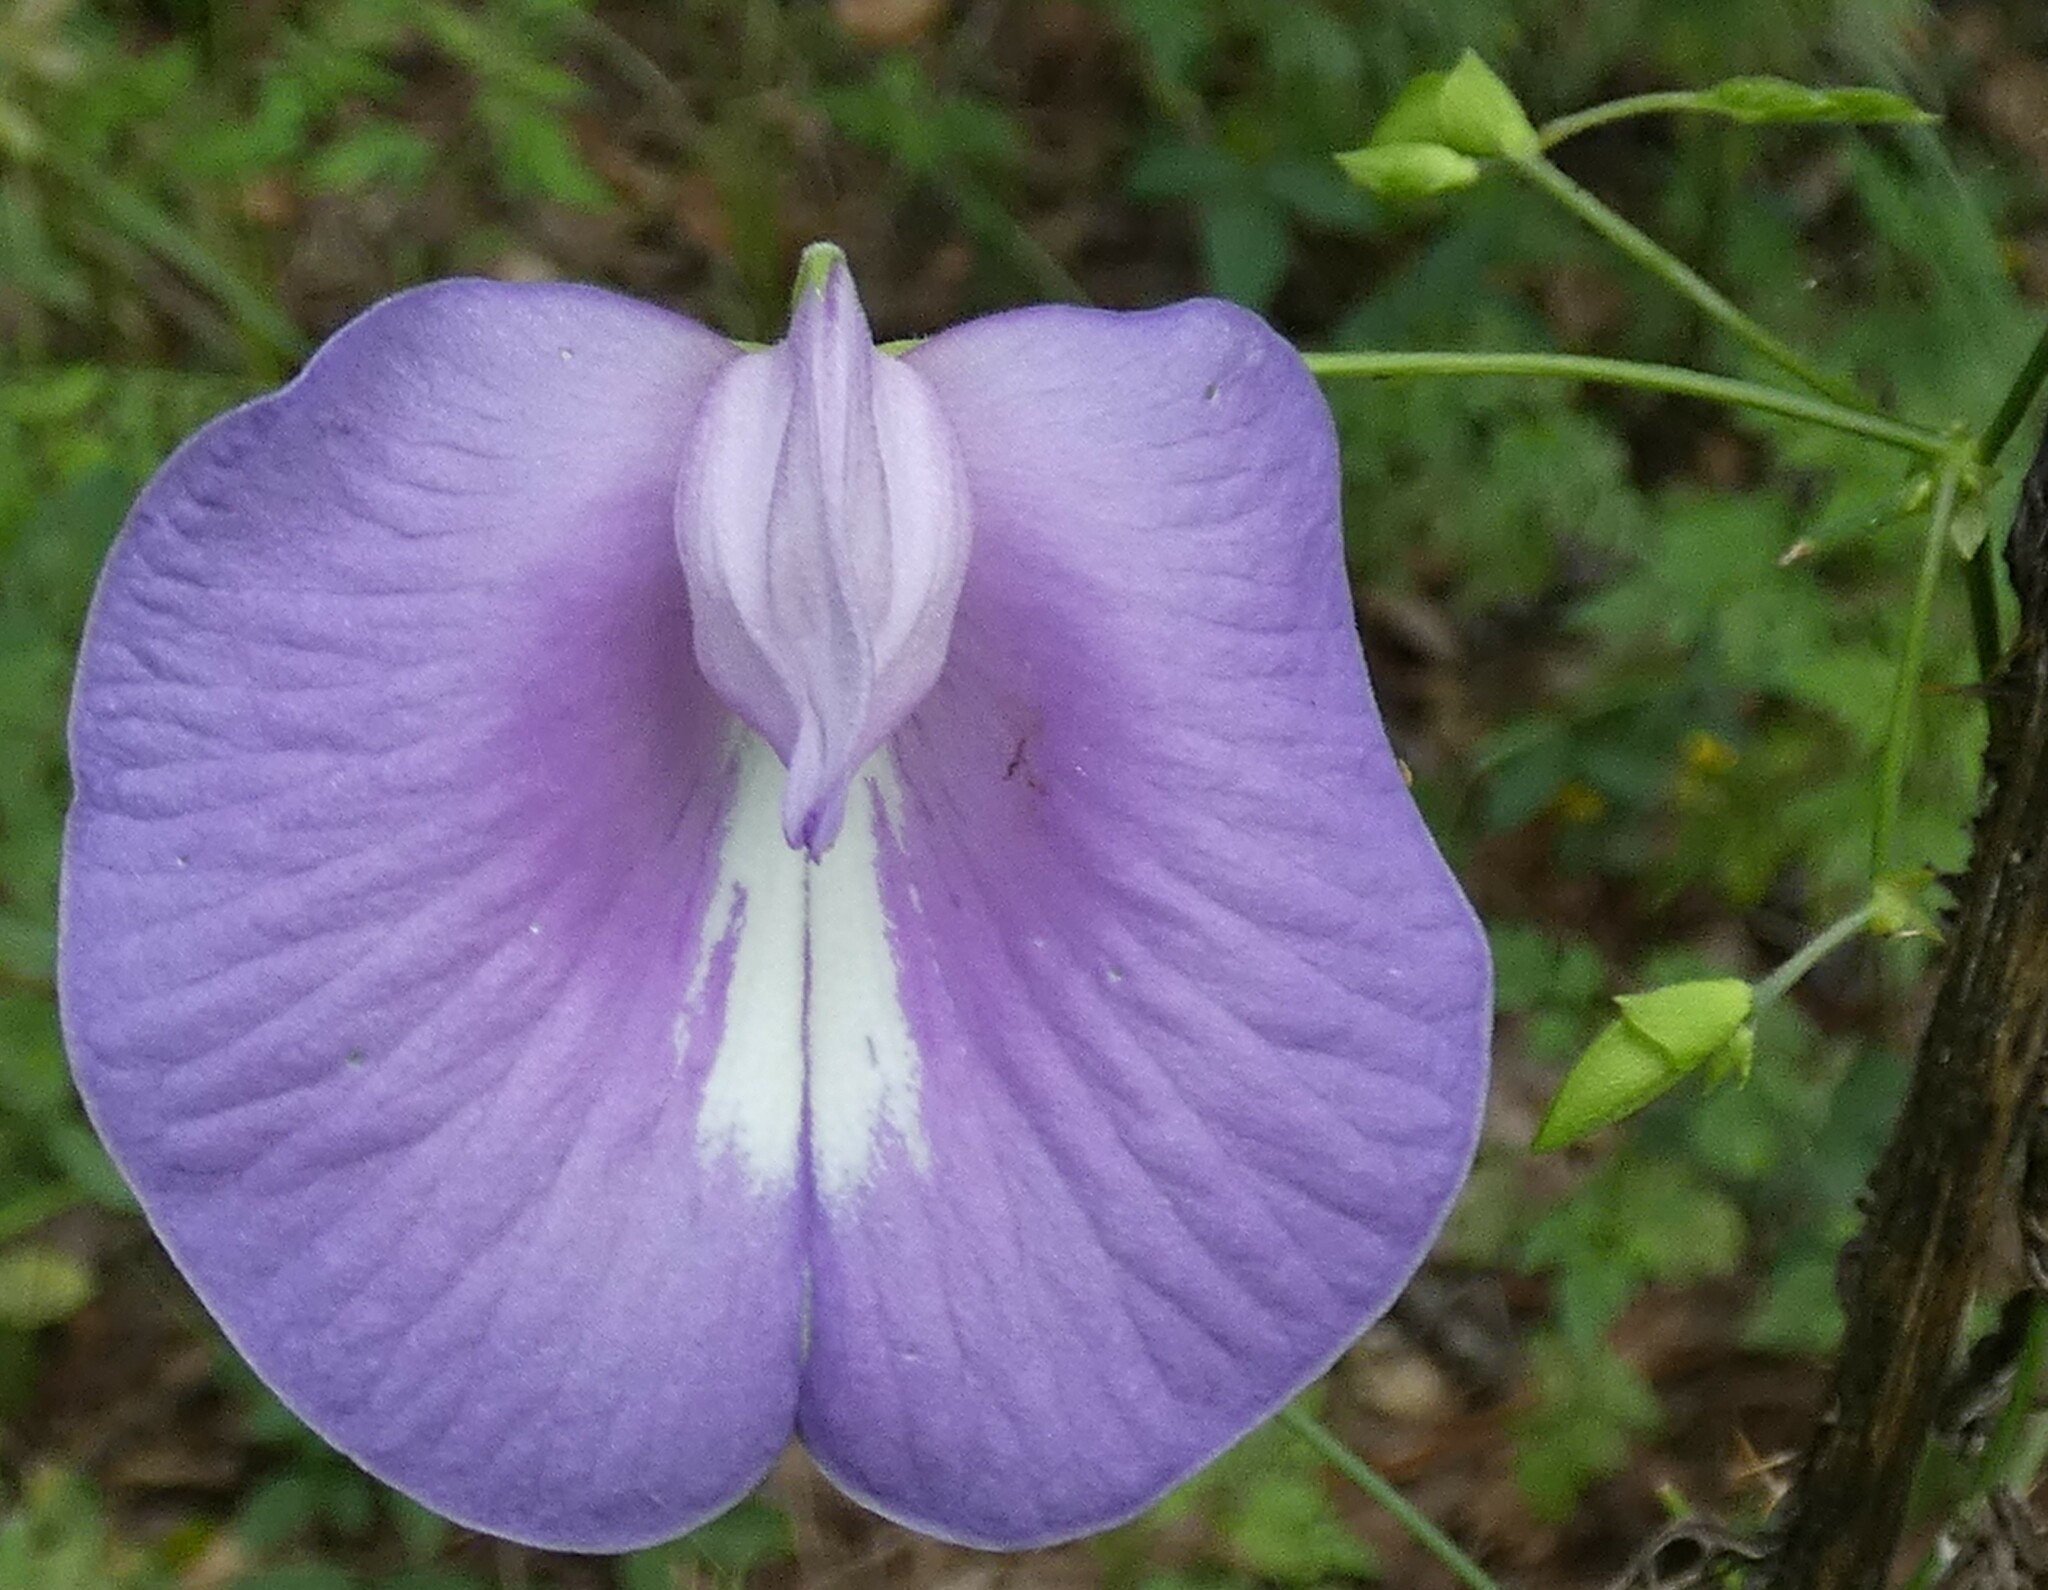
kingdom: Plantae
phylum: Tracheophyta
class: Magnoliopsida
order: Fabales
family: Fabaceae
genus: Centrosema
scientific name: Centrosema virginianum
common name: Butterfly-pea
